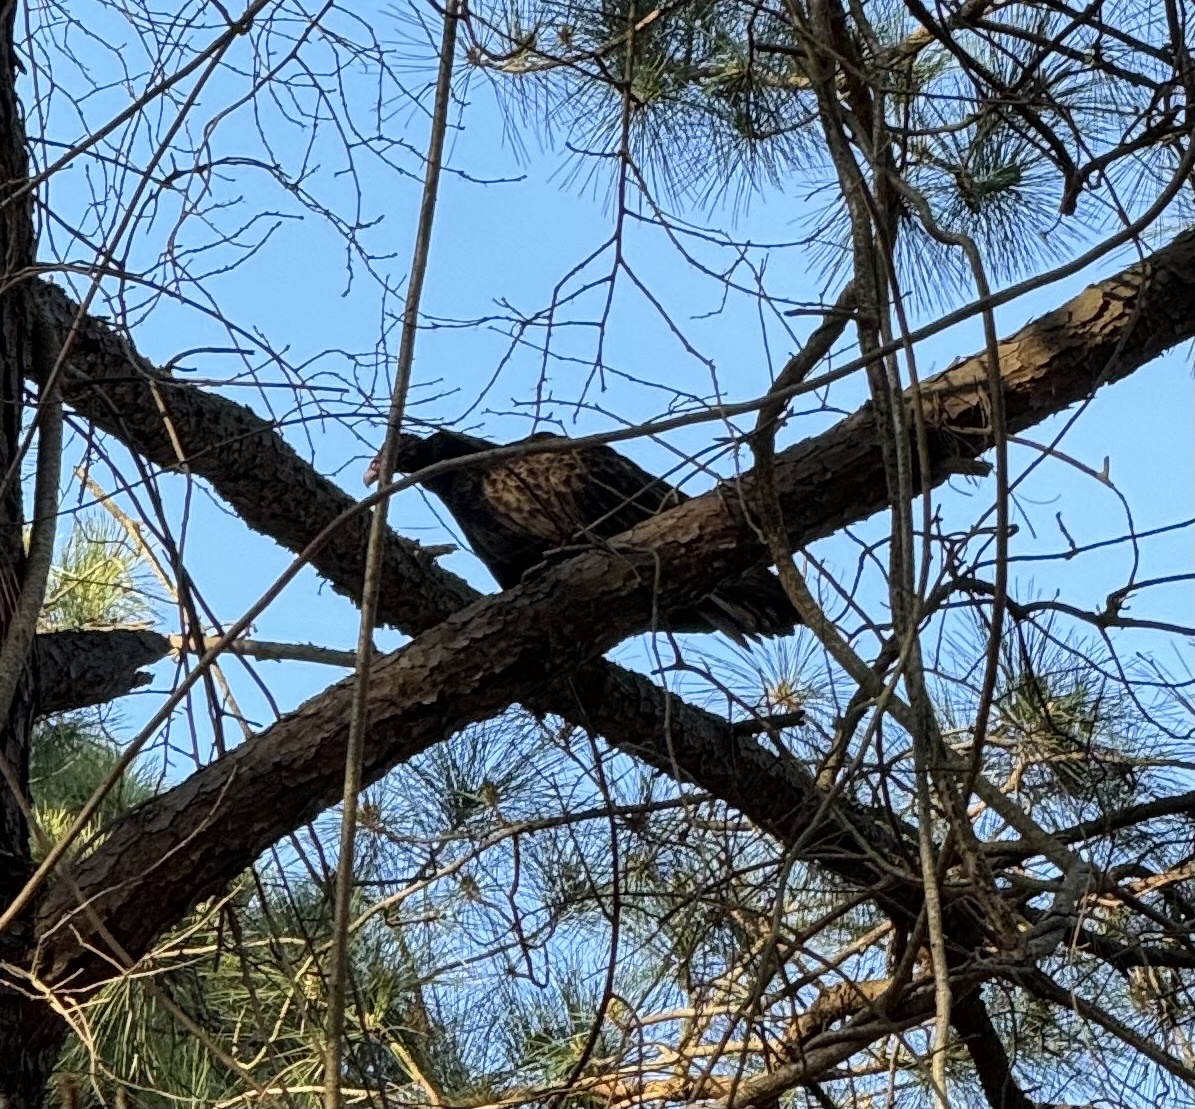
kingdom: Animalia
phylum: Chordata
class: Aves
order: Accipitriformes
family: Cathartidae
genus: Cathartes
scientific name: Cathartes aura
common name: Turkey vulture
